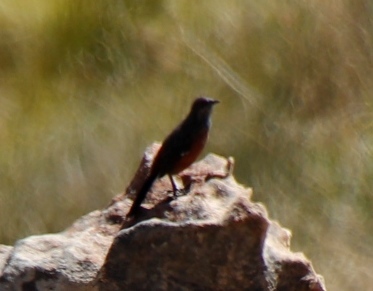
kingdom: Animalia
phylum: Chordata
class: Aves
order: Passeriformes
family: Chaetopidae
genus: Chaetops
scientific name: Chaetops frenatus
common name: Cape rockjumper
